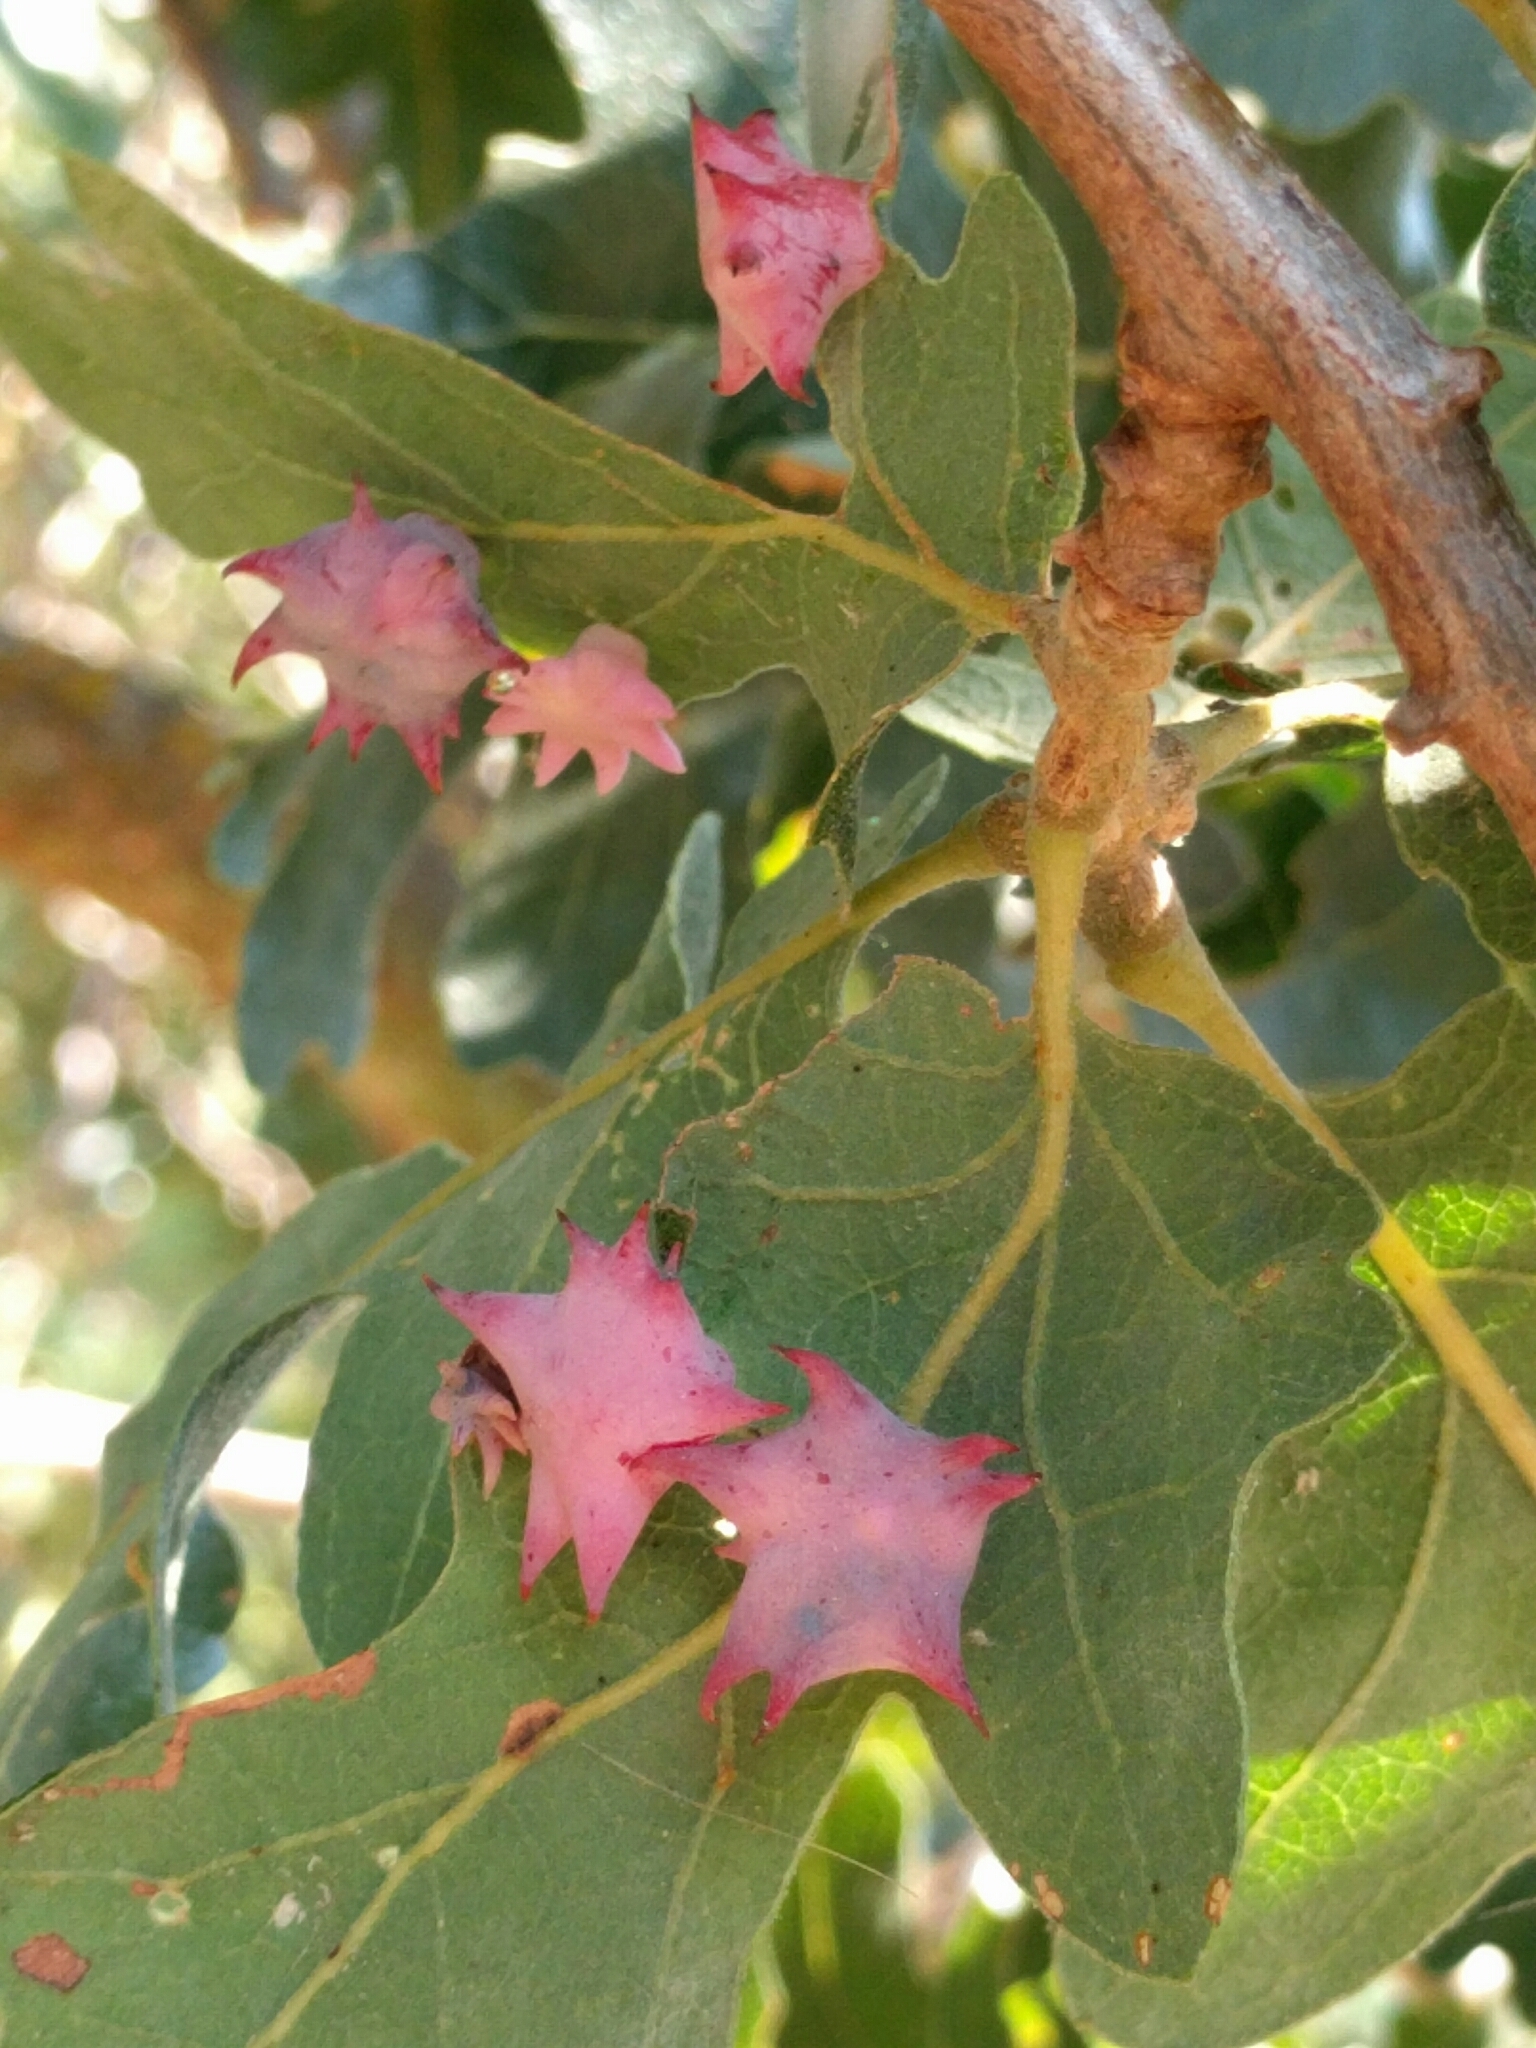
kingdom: Animalia
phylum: Arthropoda
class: Insecta
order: Hymenoptera
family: Cynipidae
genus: Cynips
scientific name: Cynips douglasi
